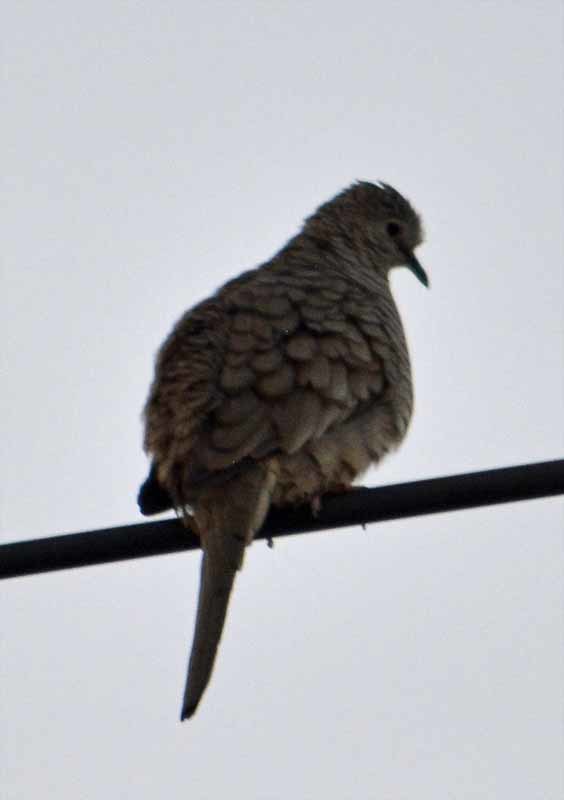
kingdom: Animalia
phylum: Chordata
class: Aves
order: Columbiformes
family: Columbidae
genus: Columbina
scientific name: Columbina inca
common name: Inca dove
